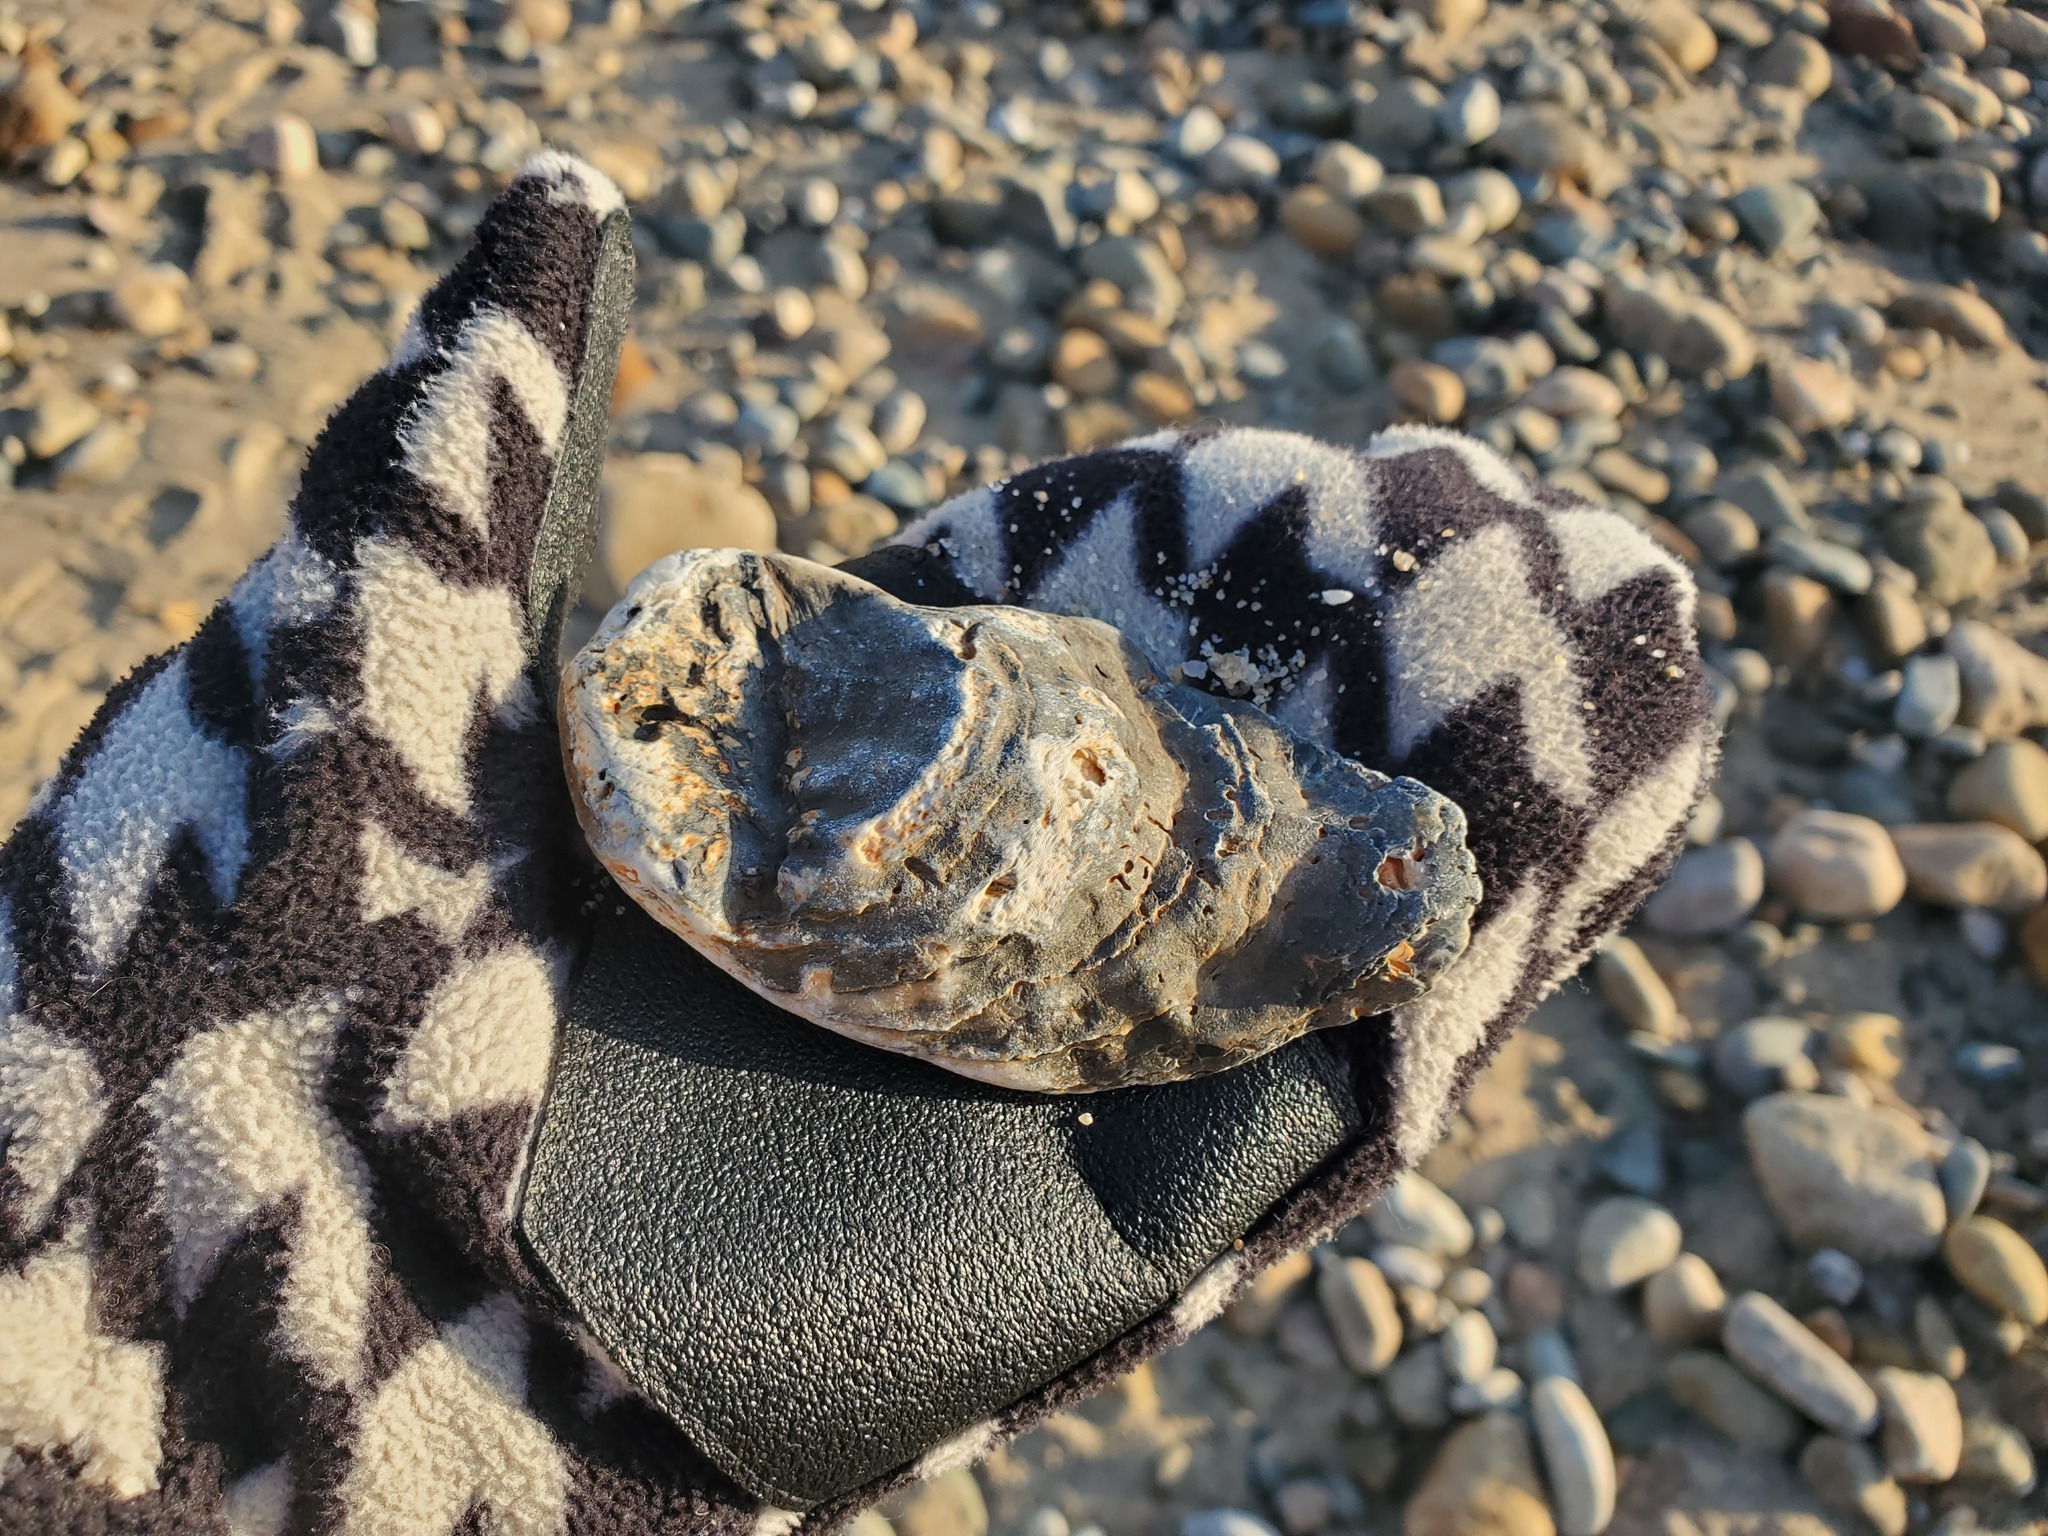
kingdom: Animalia
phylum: Mollusca
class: Bivalvia
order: Ostreida
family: Ostreidae
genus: Crassostrea
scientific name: Crassostrea virginica
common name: American oyster
